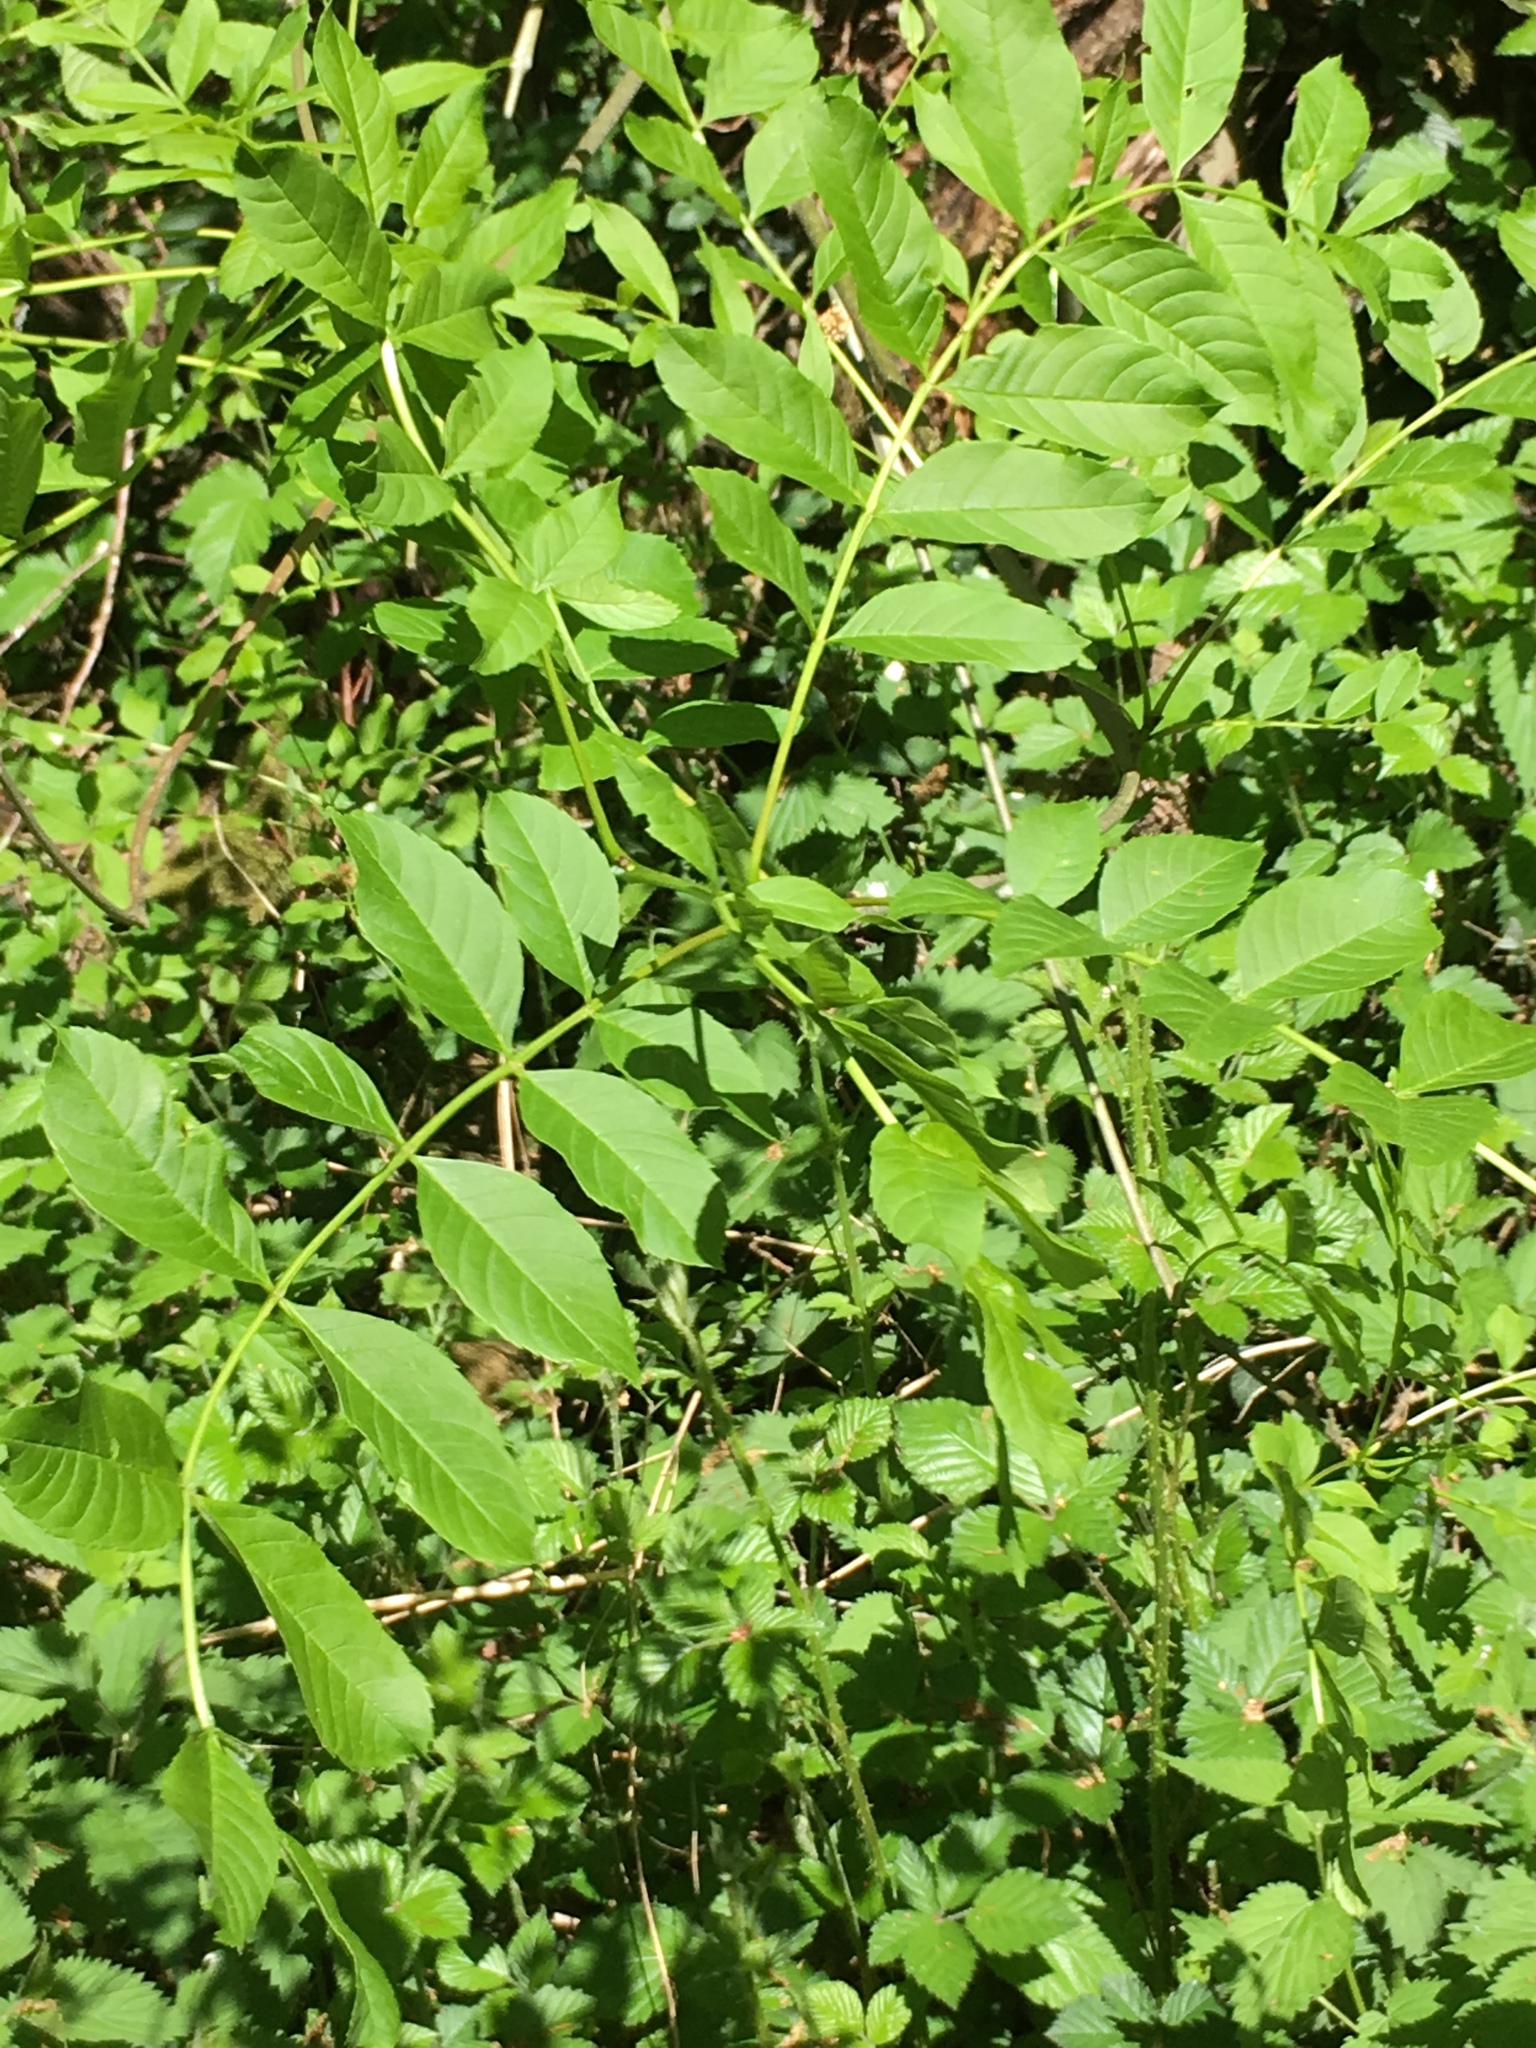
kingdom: Plantae
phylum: Tracheophyta
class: Magnoliopsida
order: Lamiales
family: Oleaceae
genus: Fraxinus
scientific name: Fraxinus excelsior
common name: European ash
